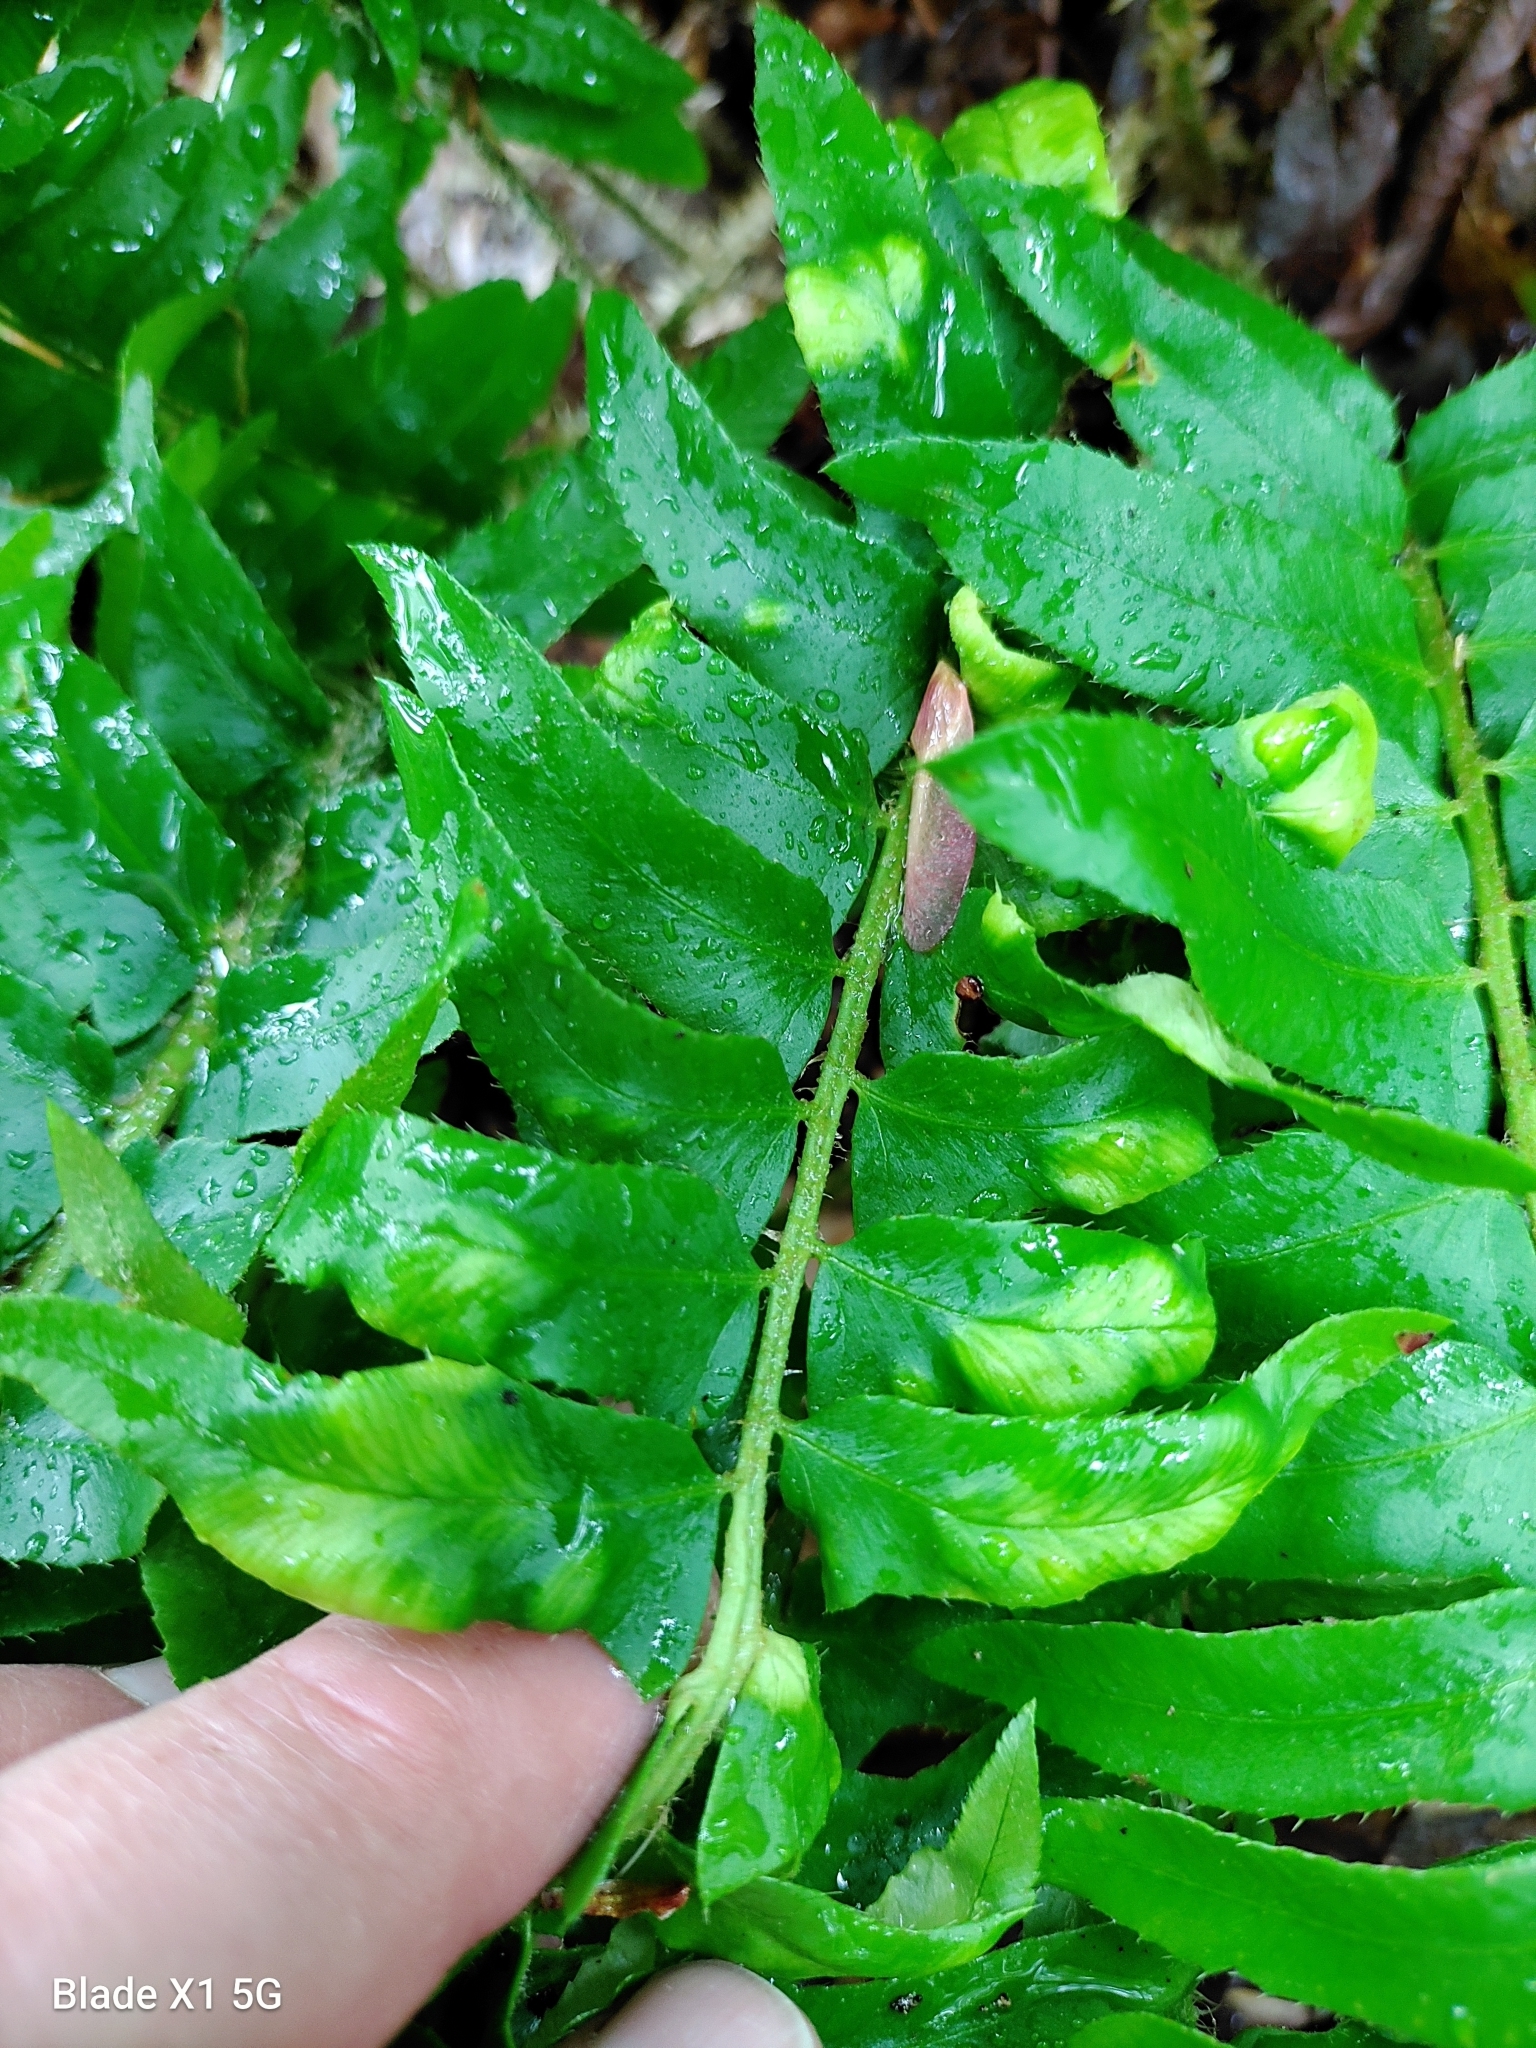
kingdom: Fungi
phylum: Ascomycota
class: Taphrinomycetes
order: Taphrinales
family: Taphrinaceae
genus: Taphrina
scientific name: Taphrina polystichi
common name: Christmas fern leaf curl
